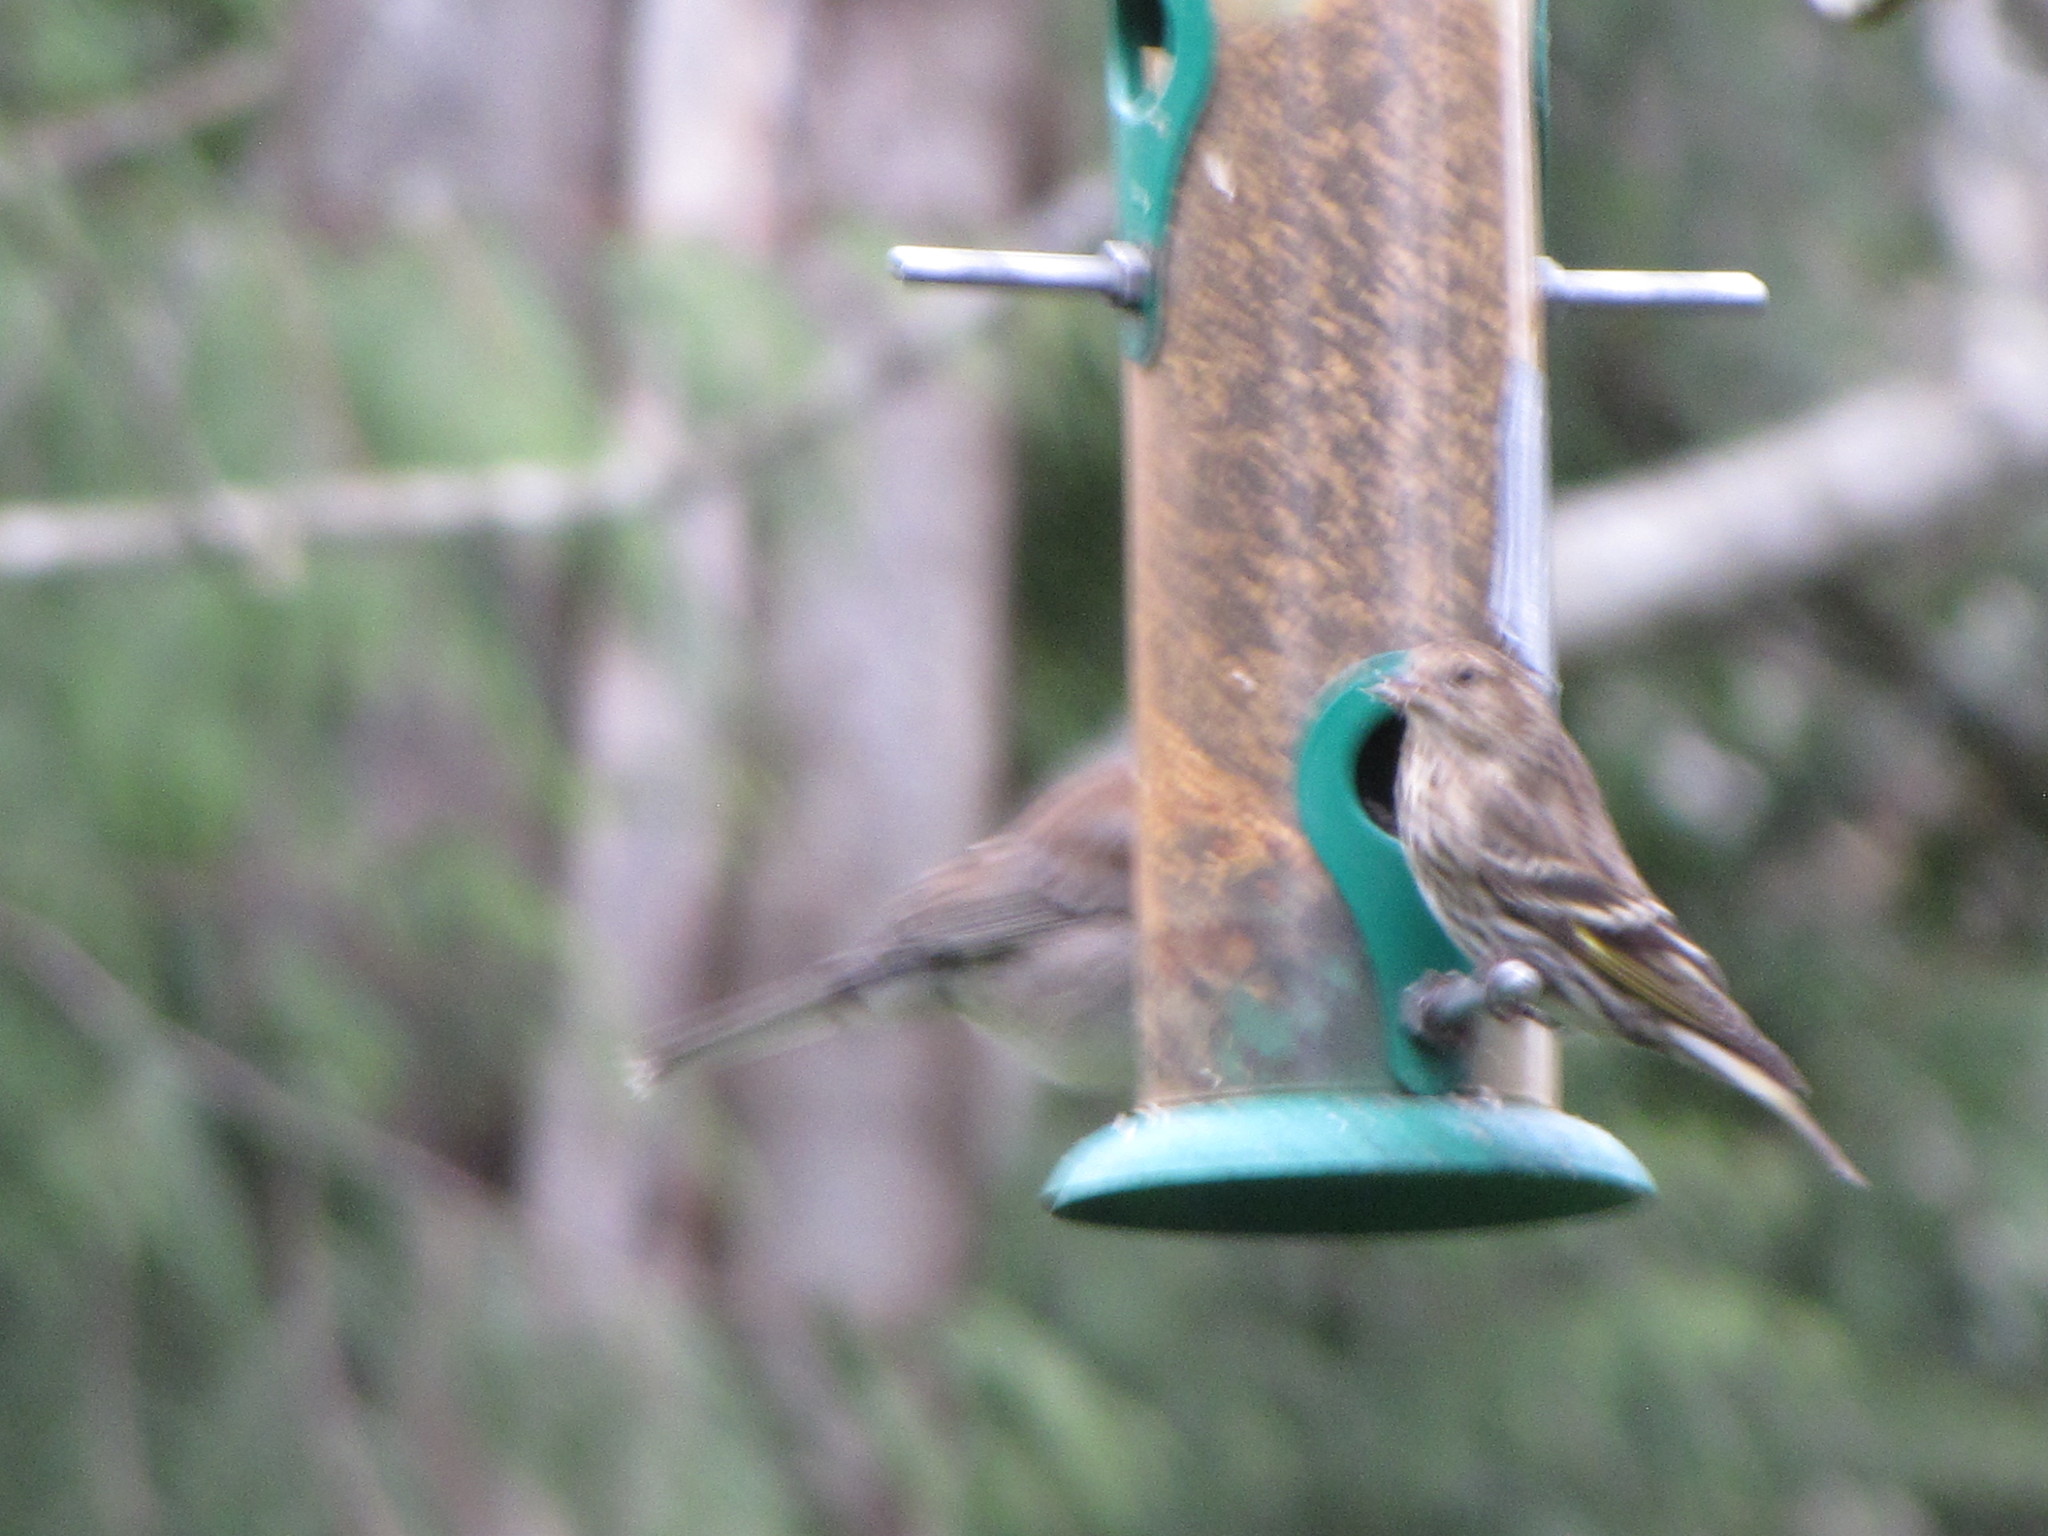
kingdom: Animalia
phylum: Chordata
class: Aves
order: Passeriformes
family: Fringillidae
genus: Spinus
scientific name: Spinus pinus
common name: Pine siskin
